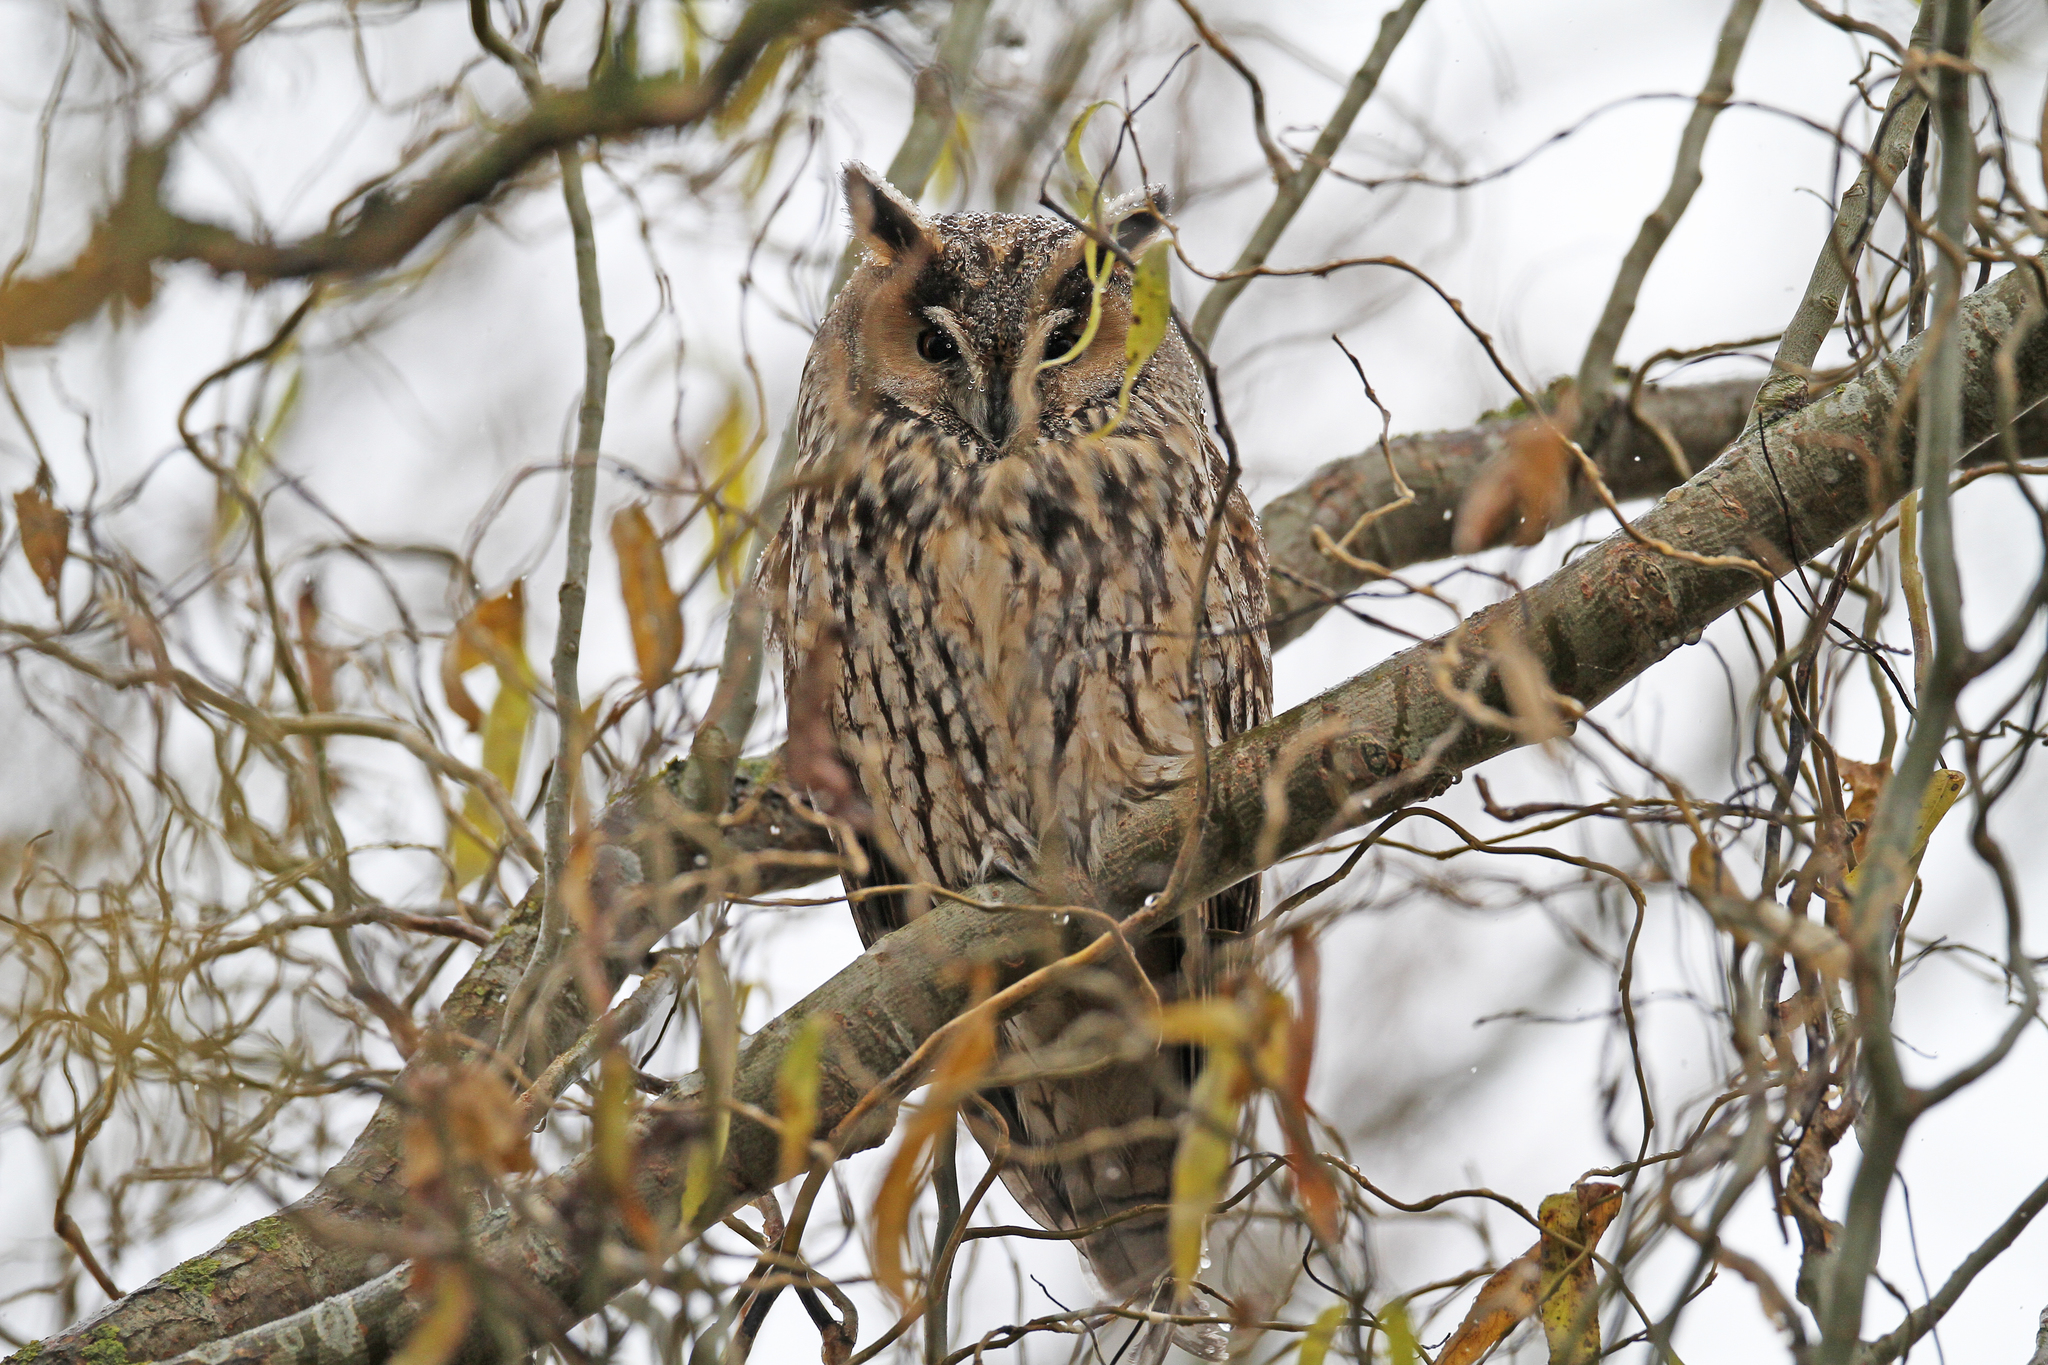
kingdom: Animalia
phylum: Chordata
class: Aves
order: Strigiformes
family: Strigidae
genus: Asio
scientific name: Asio otus
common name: Long-eared owl
